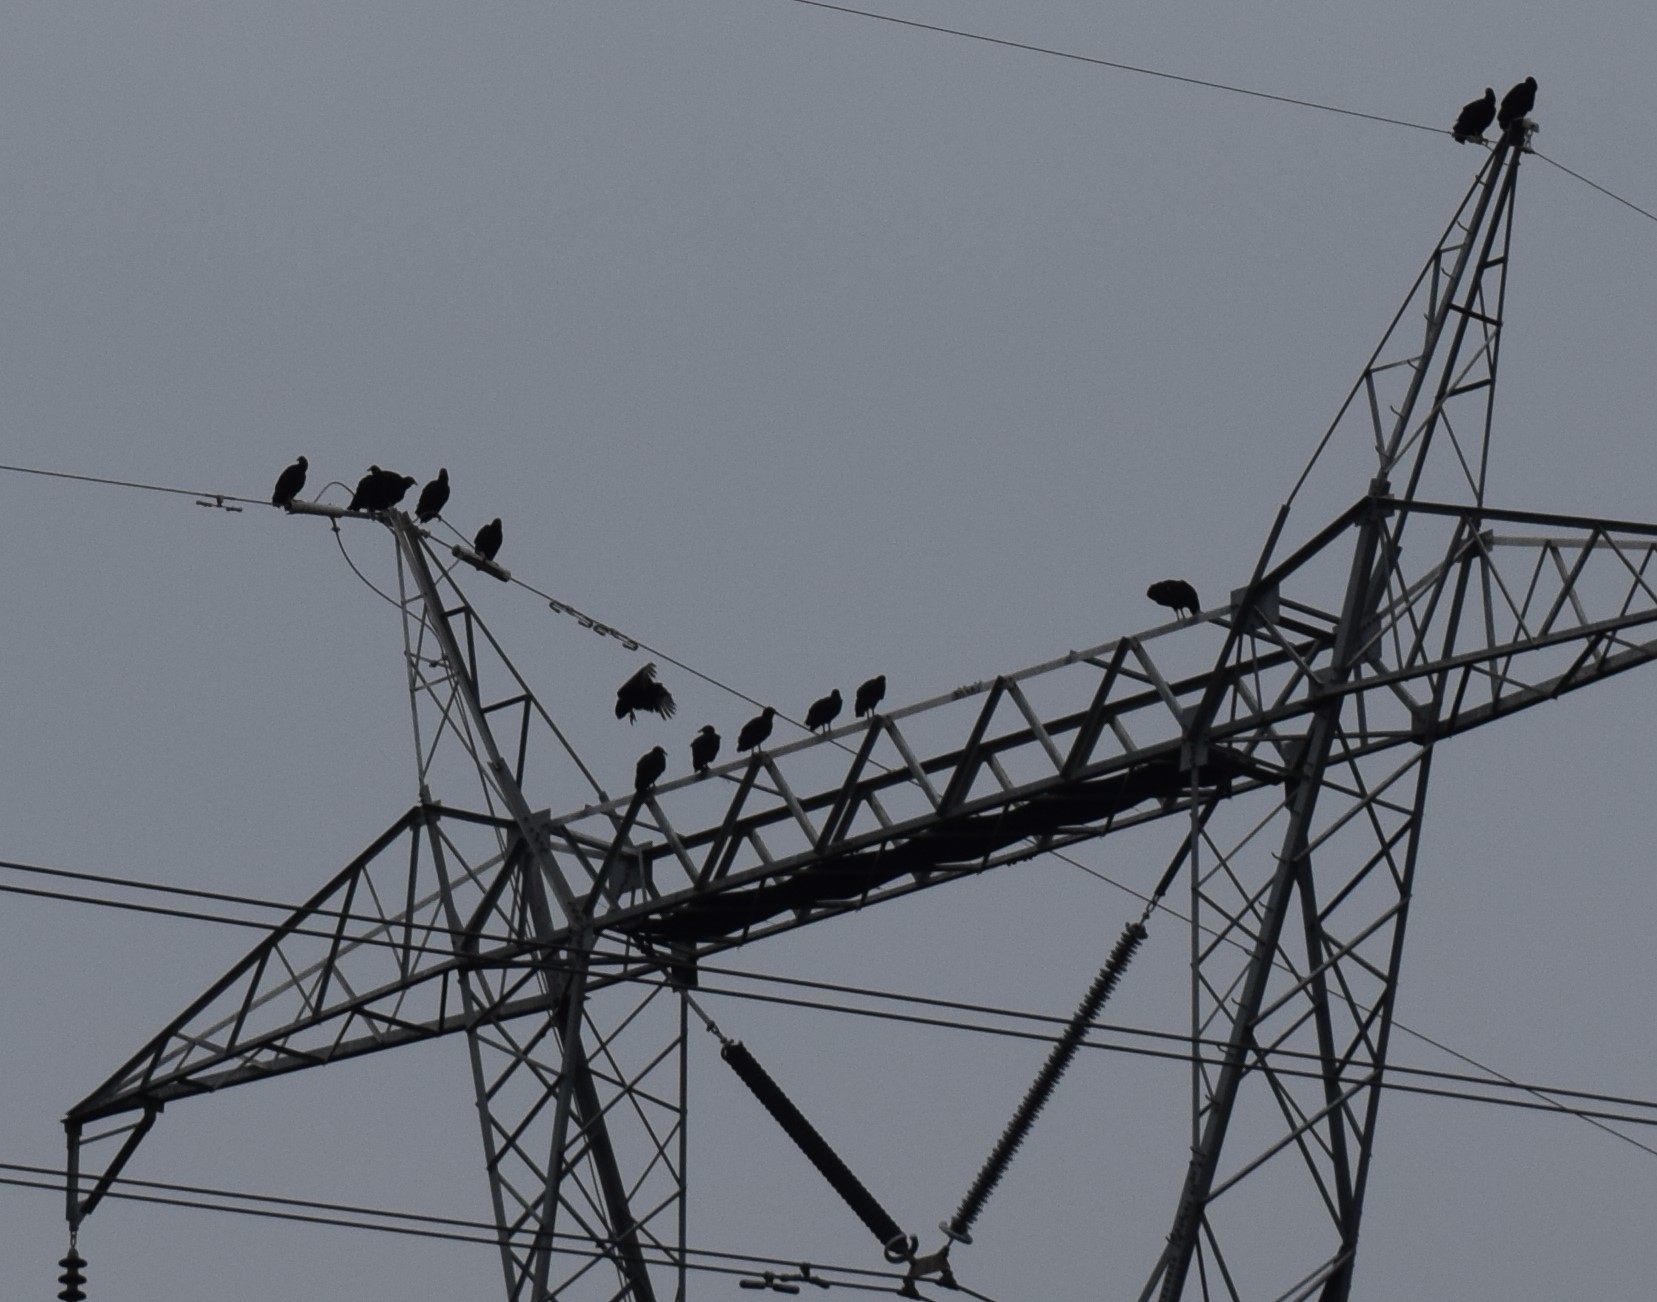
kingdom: Animalia
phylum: Chordata
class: Aves
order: Accipitriformes
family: Cathartidae
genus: Coragyps
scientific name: Coragyps atratus
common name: Black vulture
